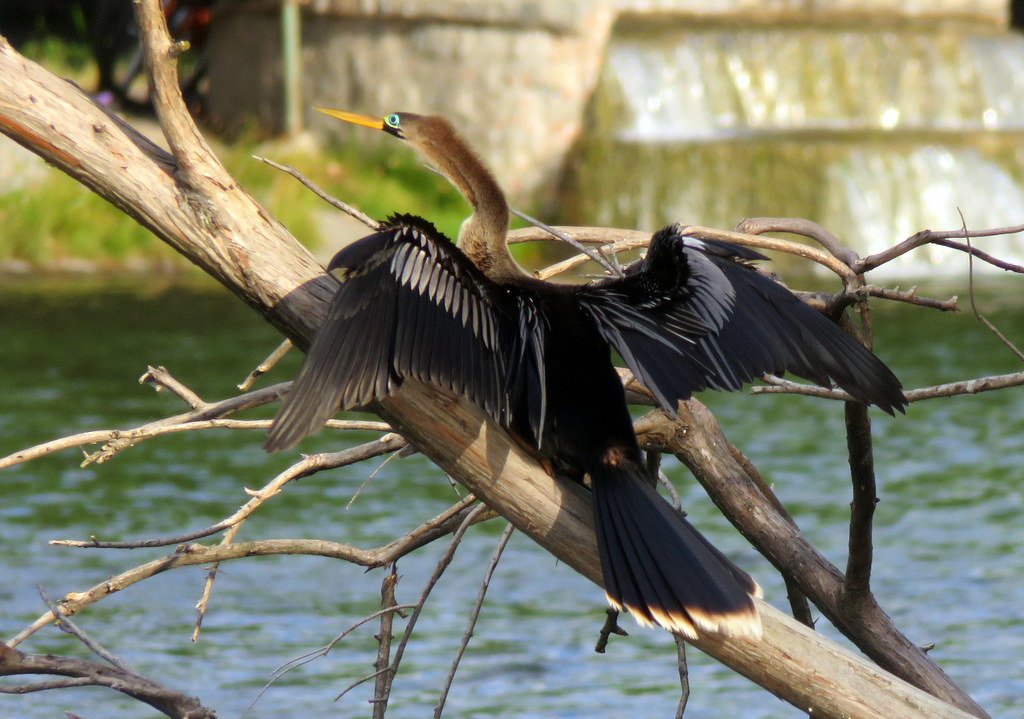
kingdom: Animalia
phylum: Chordata
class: Aves
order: Suliformes
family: Anhingidae
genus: Anhinga
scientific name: Anhinga anhinga
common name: Anhinga
